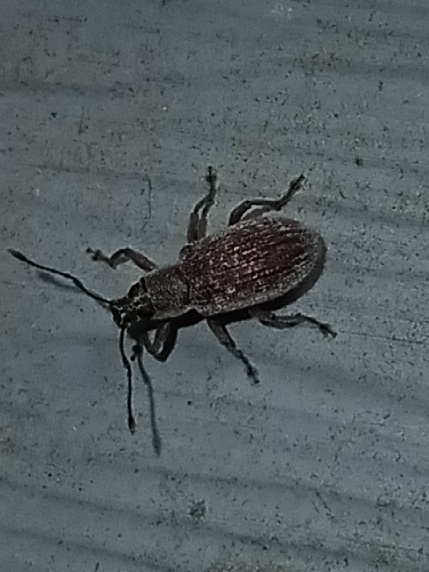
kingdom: Animalia
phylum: Arthropoda
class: Insecta
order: Coleoptera
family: Curculionidae
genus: Cyrtepistomus
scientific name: Cyrtepistomus castaneus
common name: Weevil
